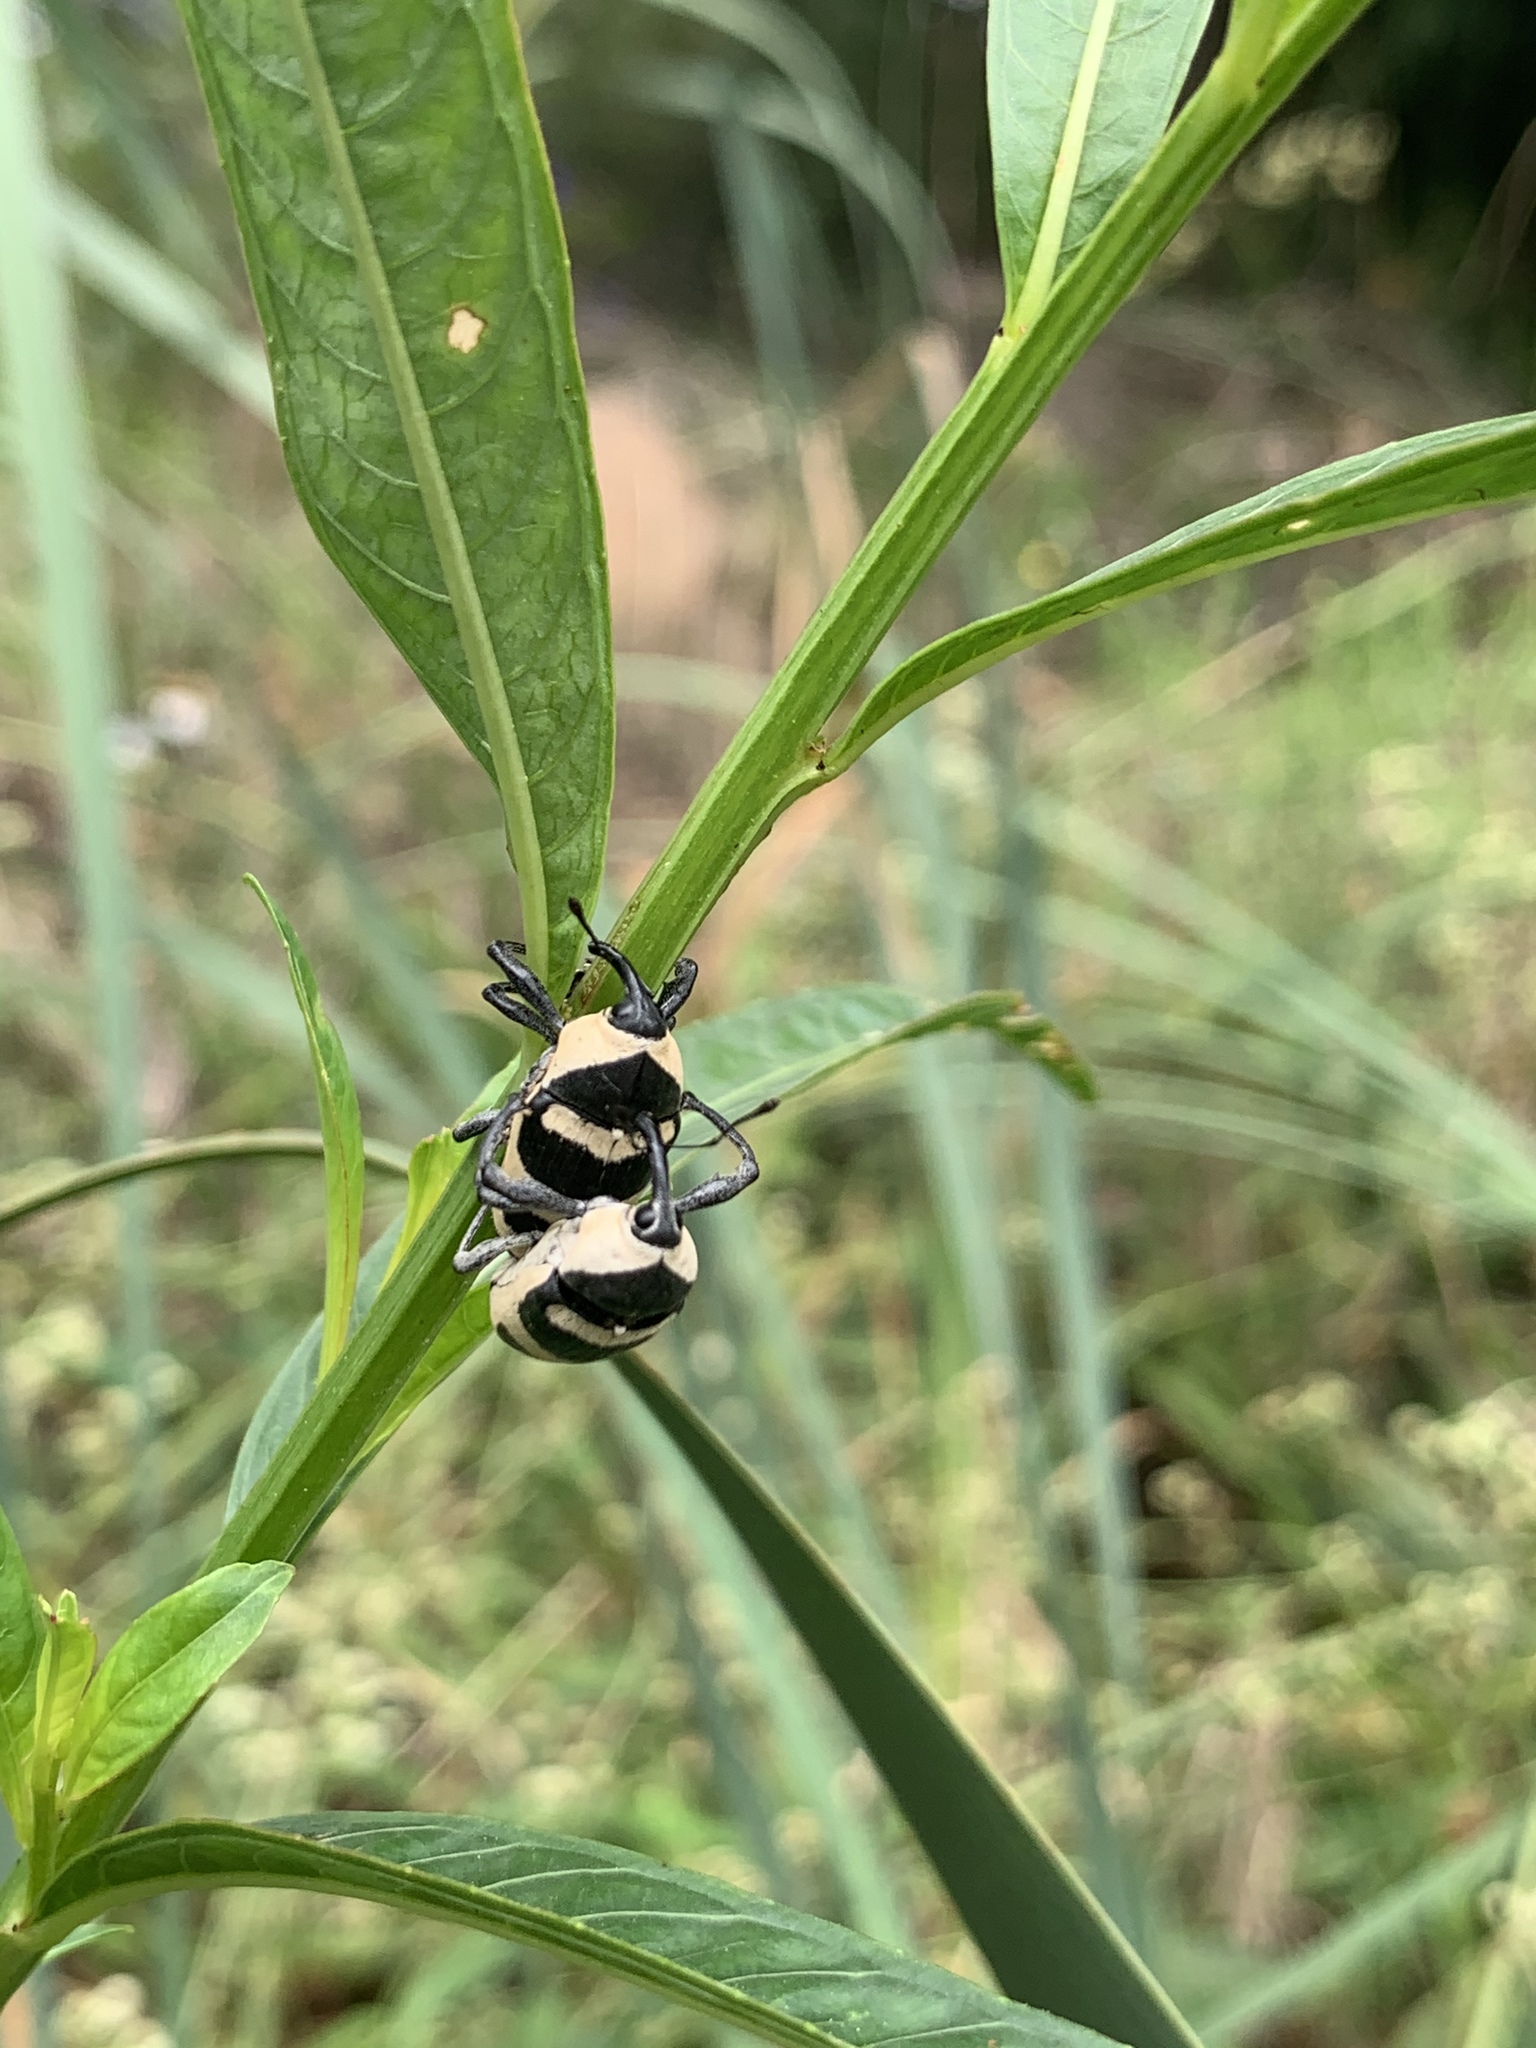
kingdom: Animalia
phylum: Arthropoda
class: Insecta
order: Coleoptera
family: Curculionidae
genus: Cholus
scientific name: Cholus annulatus
